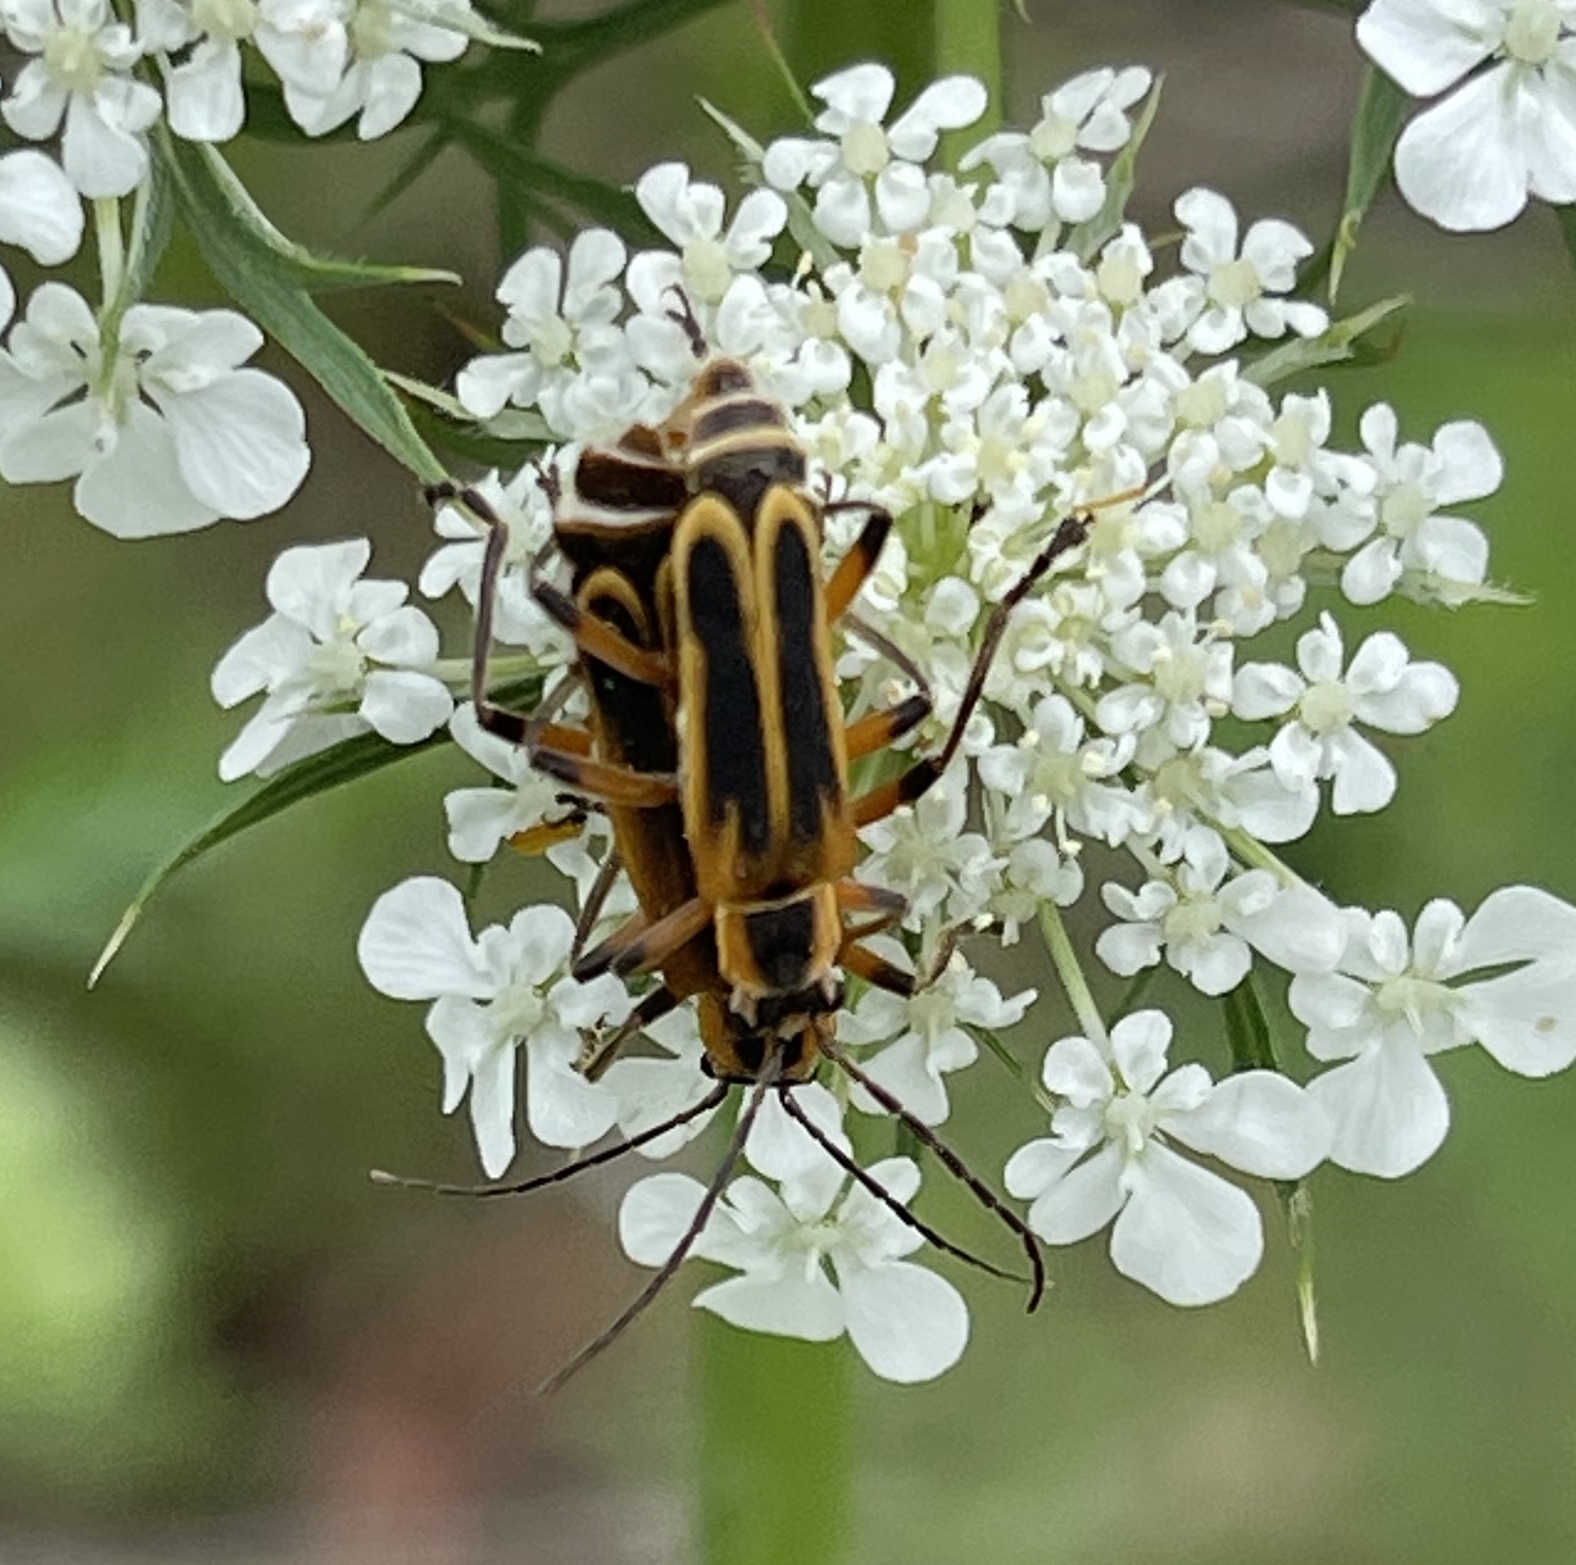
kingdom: Animalia
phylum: Arthropoda
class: Insecta
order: Coleoptera
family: Cantharidae
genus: Chauliognathus
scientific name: Chauliognathus marginatus
